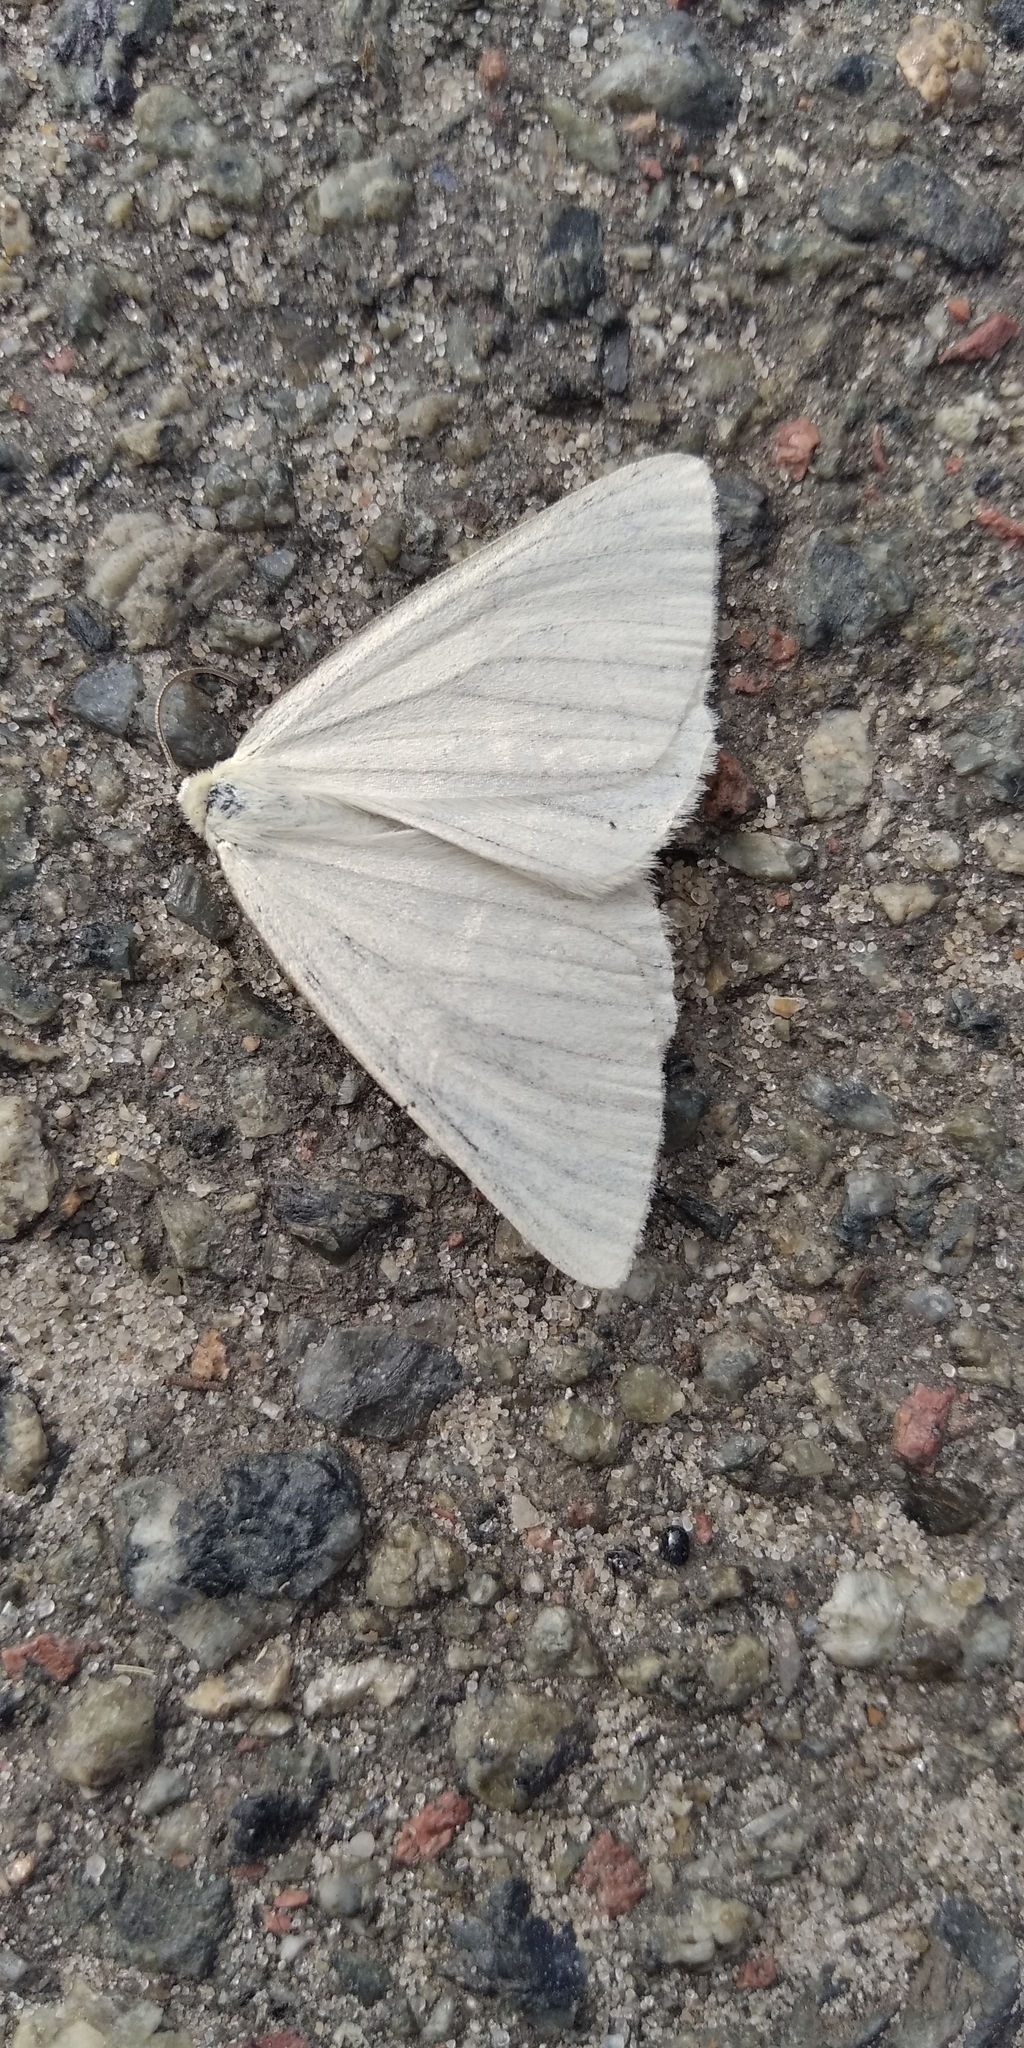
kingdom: Animalia
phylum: Arthropoda
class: Insecta
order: Lepidoptera
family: Geometridae
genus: Siona
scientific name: Siona lineata
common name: Black-veined moth
